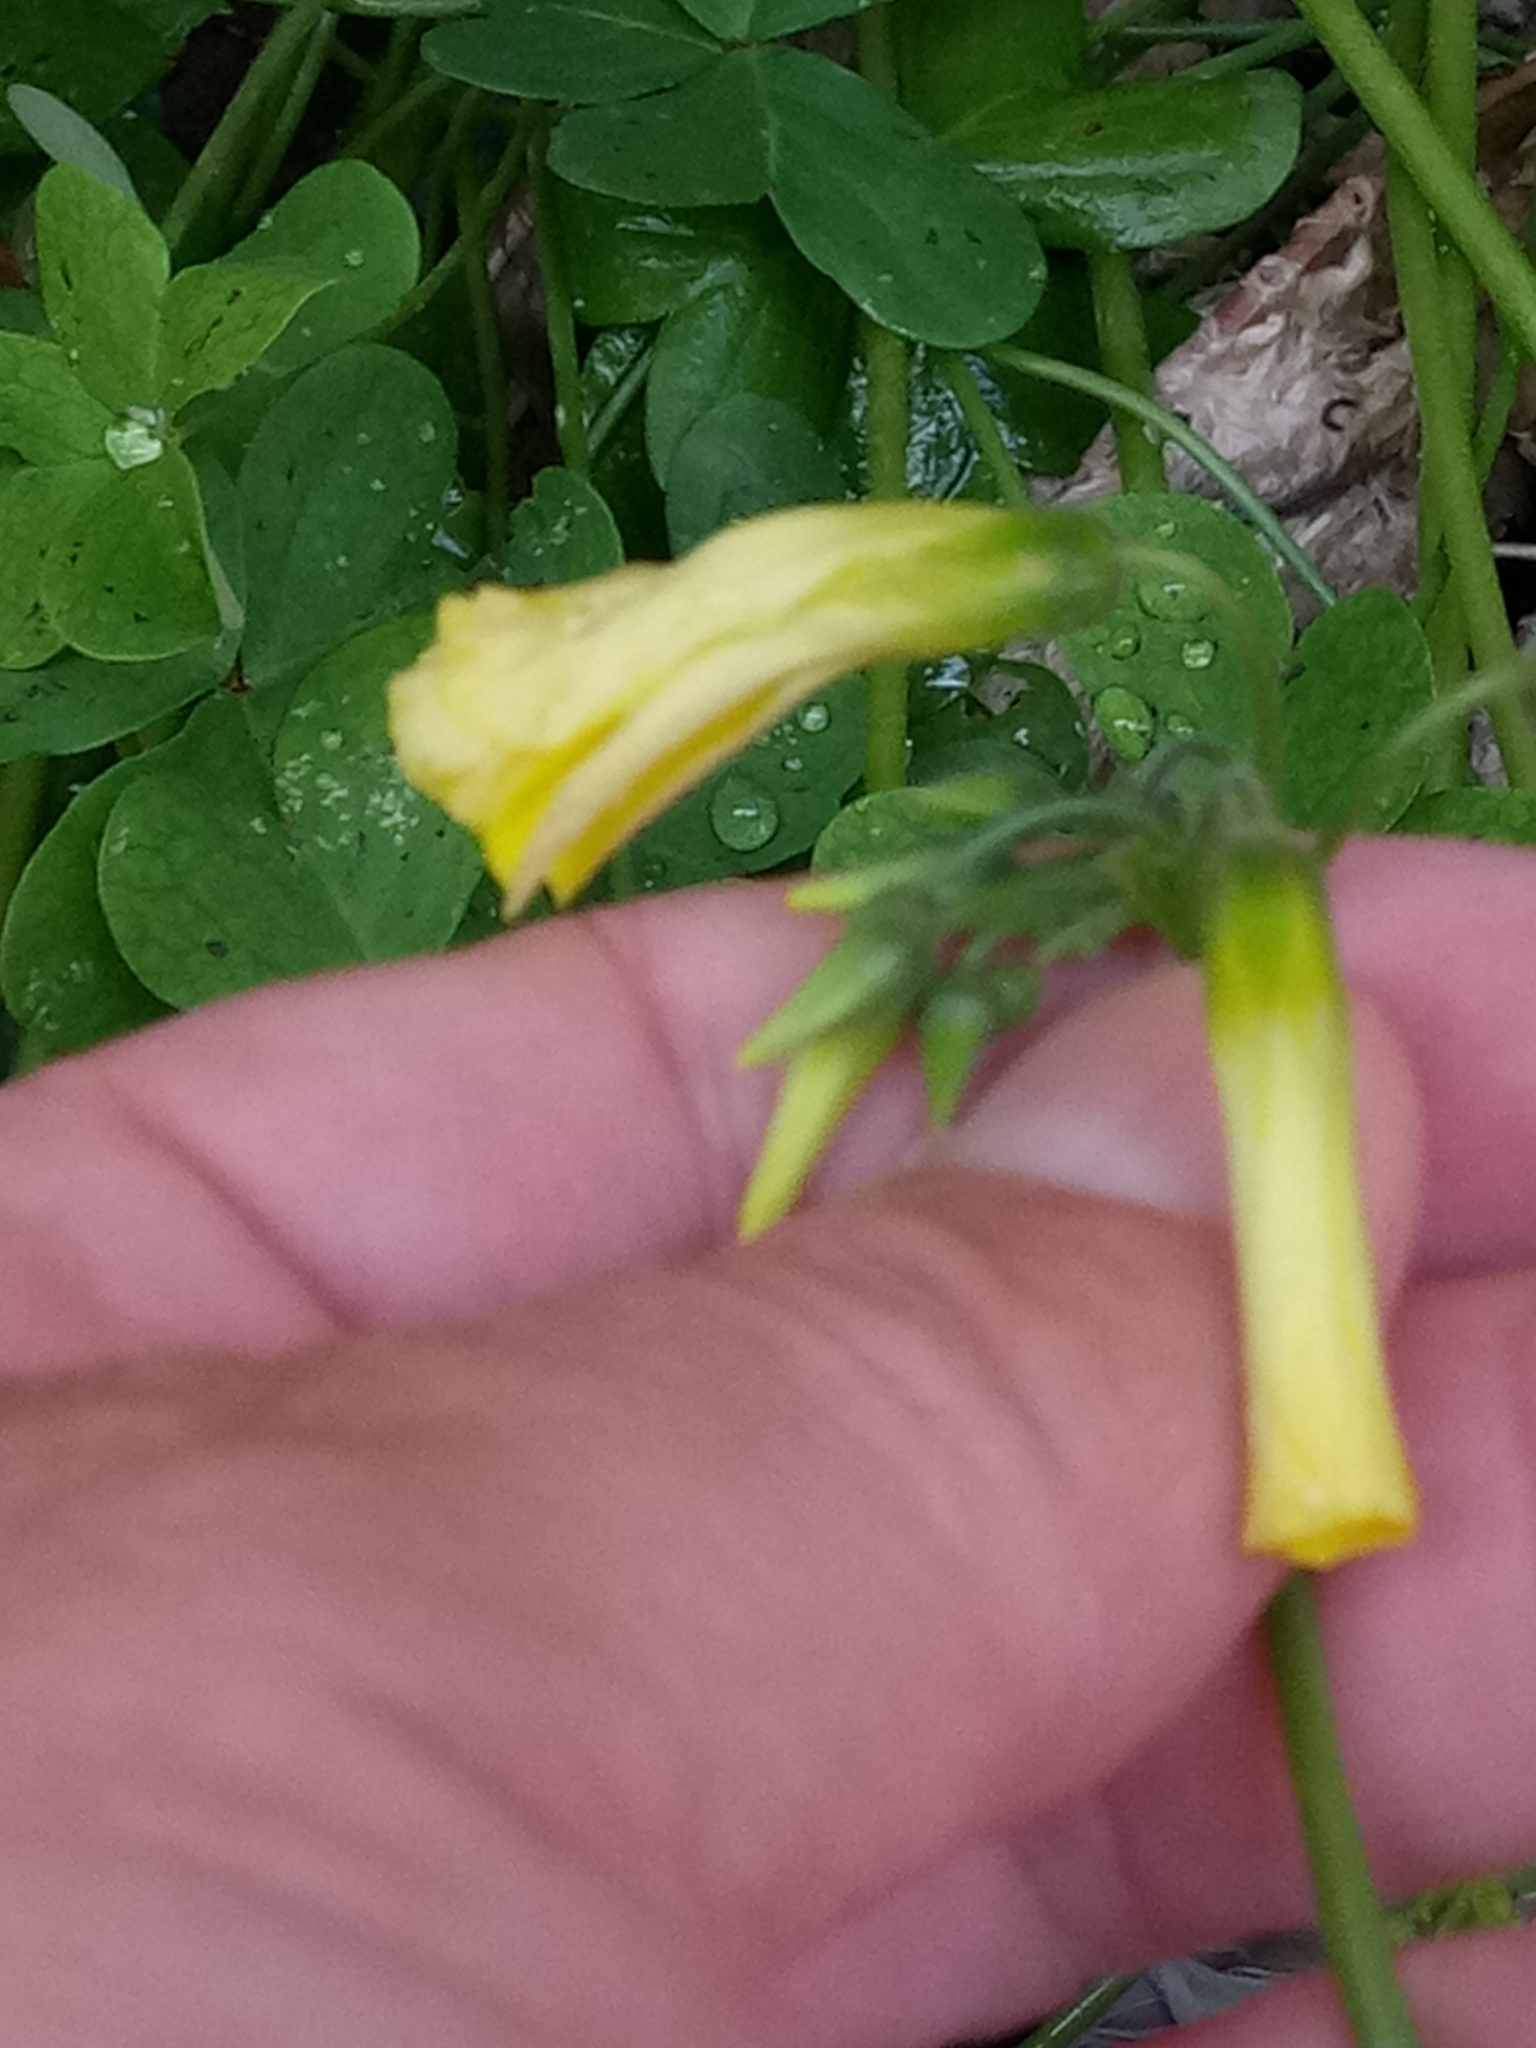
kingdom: Plantae
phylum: Tracheophyta
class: Magnoliopsida
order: Oxalidales
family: Oxalidaceae
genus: Oxalis
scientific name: Oxalis pes-caprae
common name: Bermuda-buttercup
